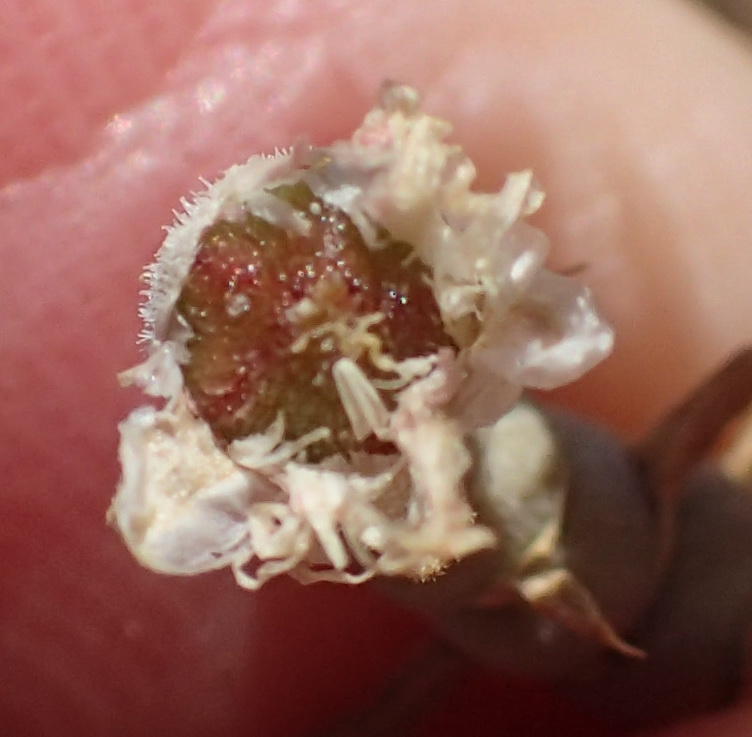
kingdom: Plantae
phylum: Tracheophyta
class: Magnoliopsida
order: Caryophyllales
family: Aizoaceae
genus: Mesembryanthemum
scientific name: Mesembryanthemum articulatum
